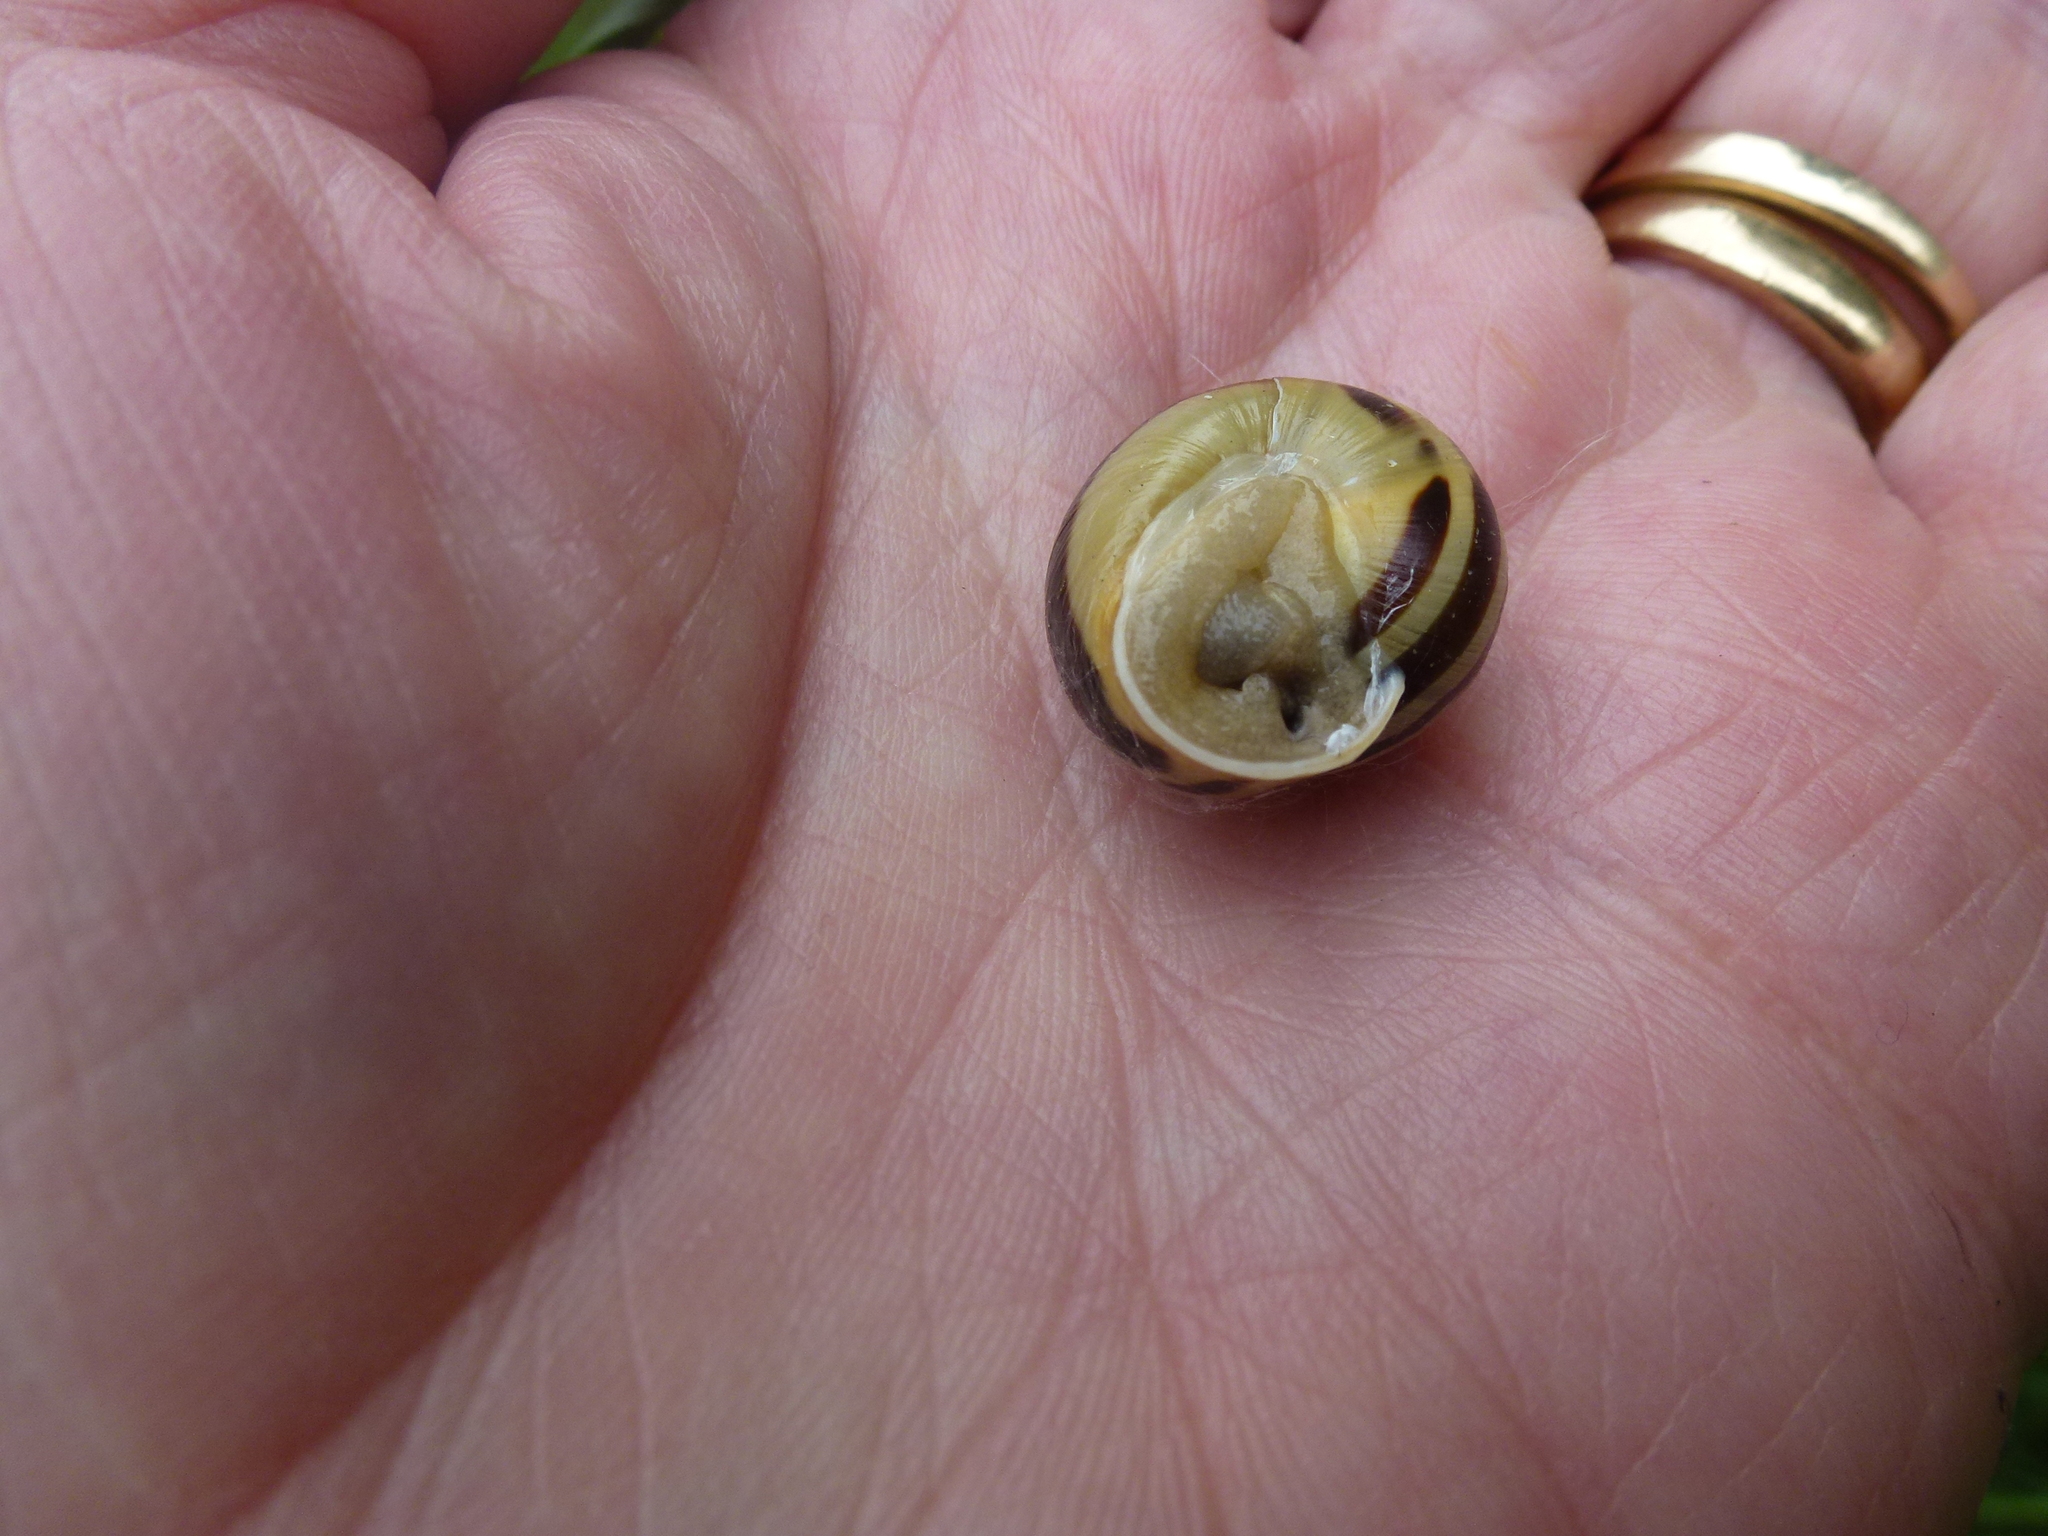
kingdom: Animalia
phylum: Mollusca
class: Gastropoda
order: Stylommatophora
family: Helicidae
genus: Cepaea
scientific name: Cepaea hortensis
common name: White-lip gardensnail
